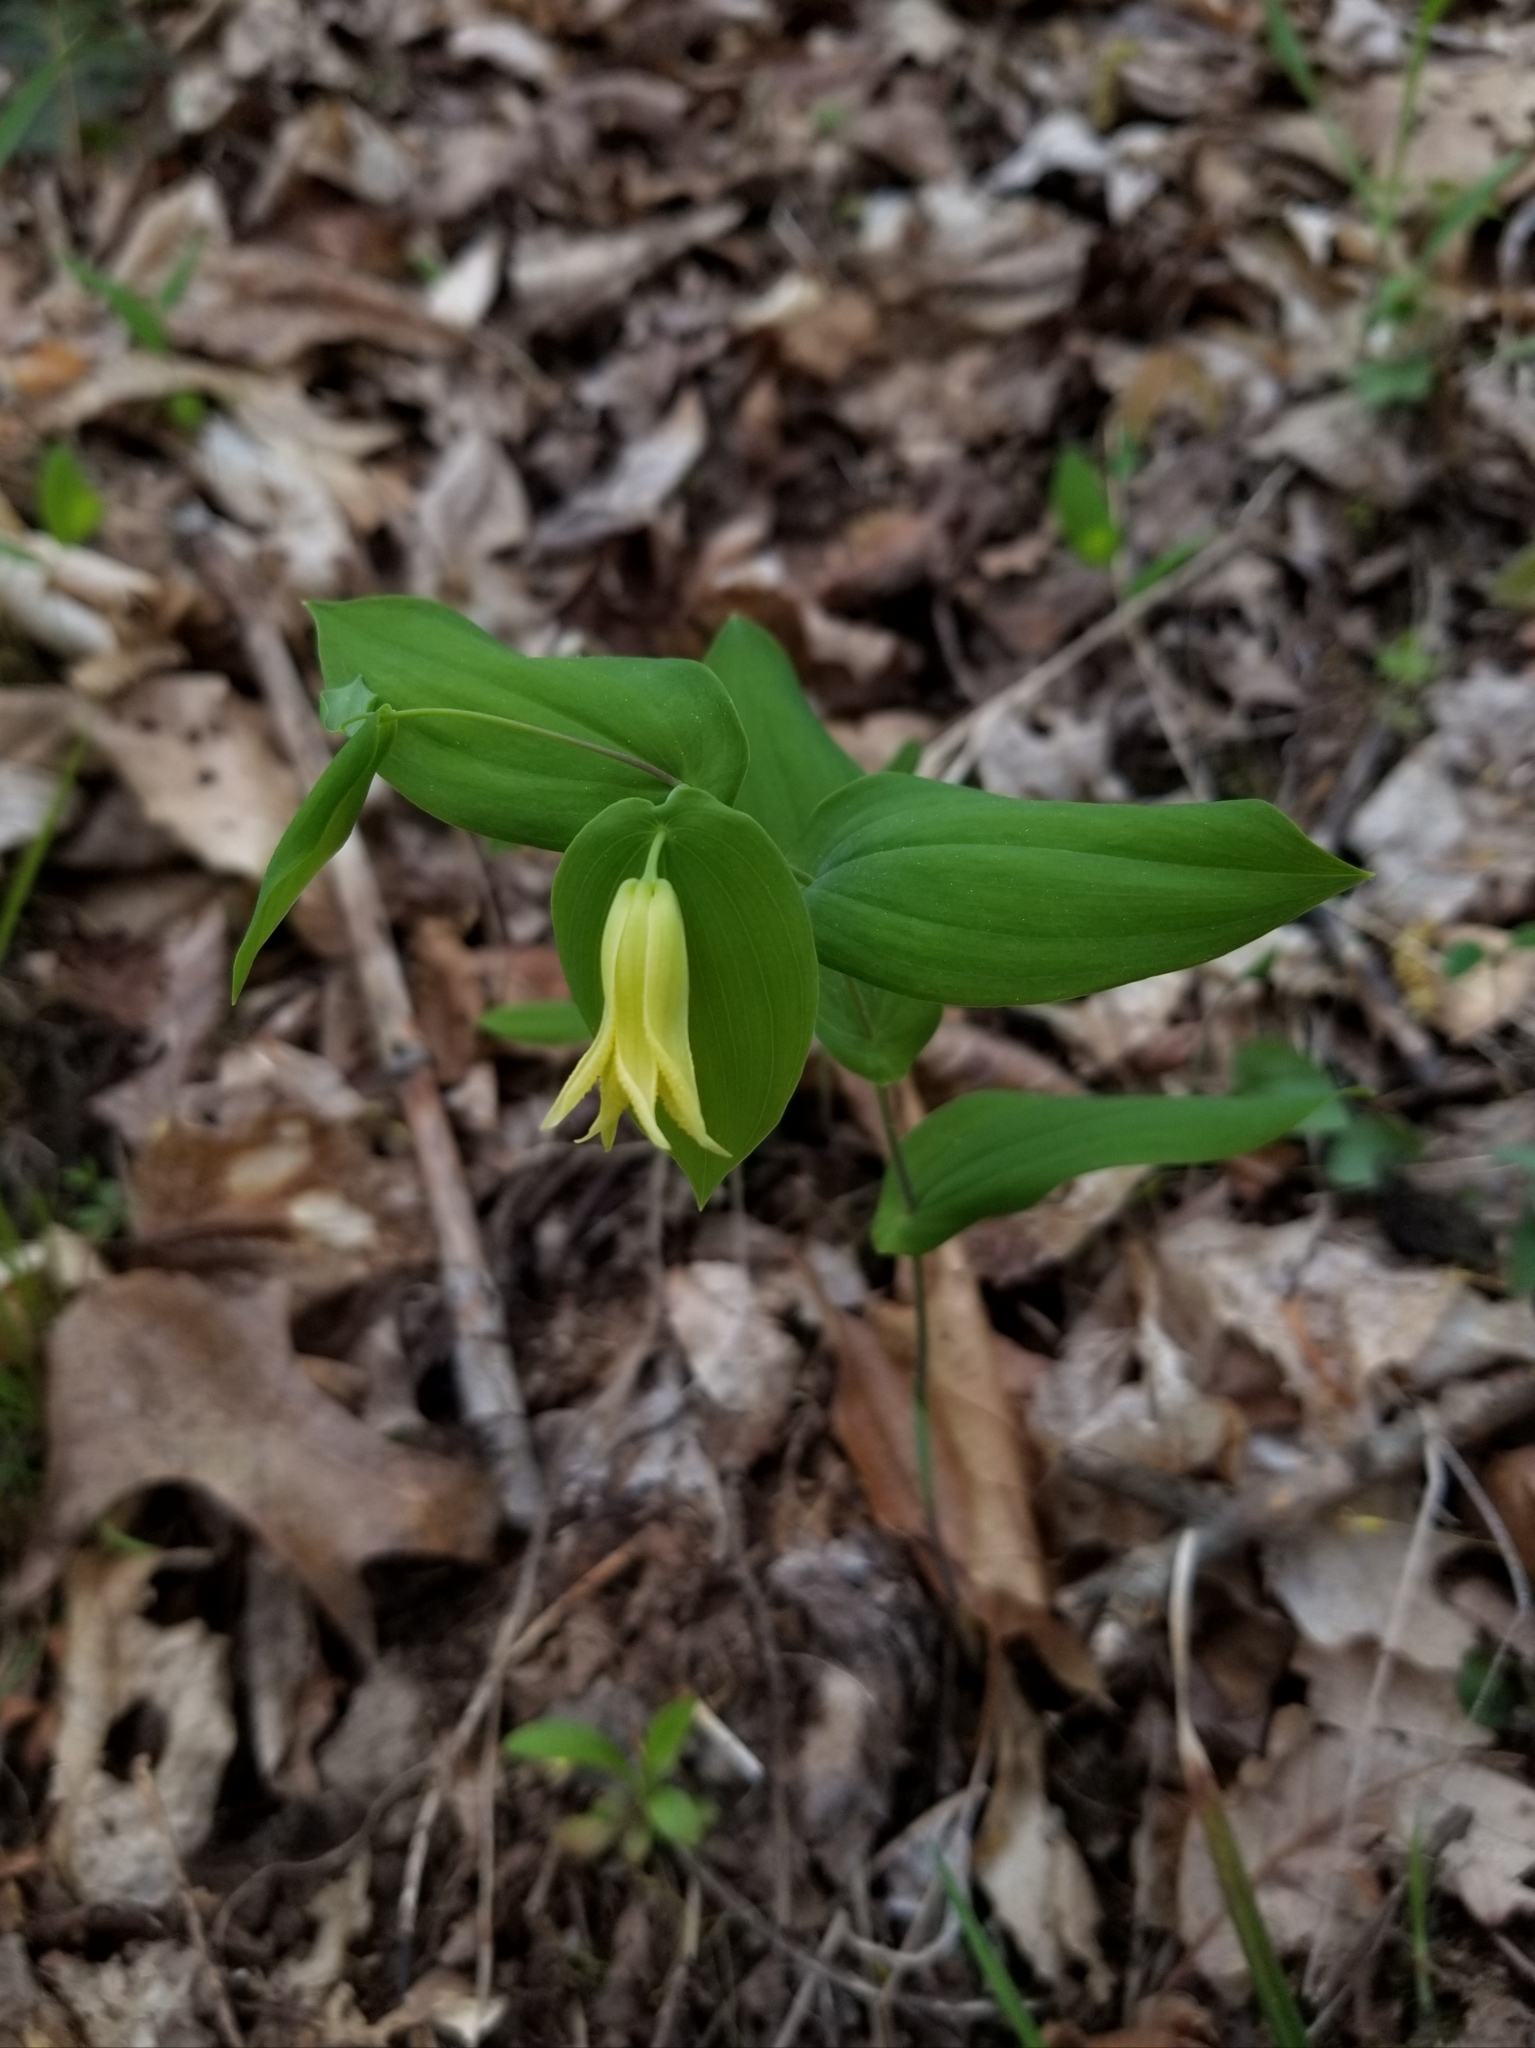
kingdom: Plantae
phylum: Tracheophyta
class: Liliopsida
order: Liliales
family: Colchicaceae
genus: Uvularia
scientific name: Uvularia perfoliata
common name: Perfoliate bellwort
